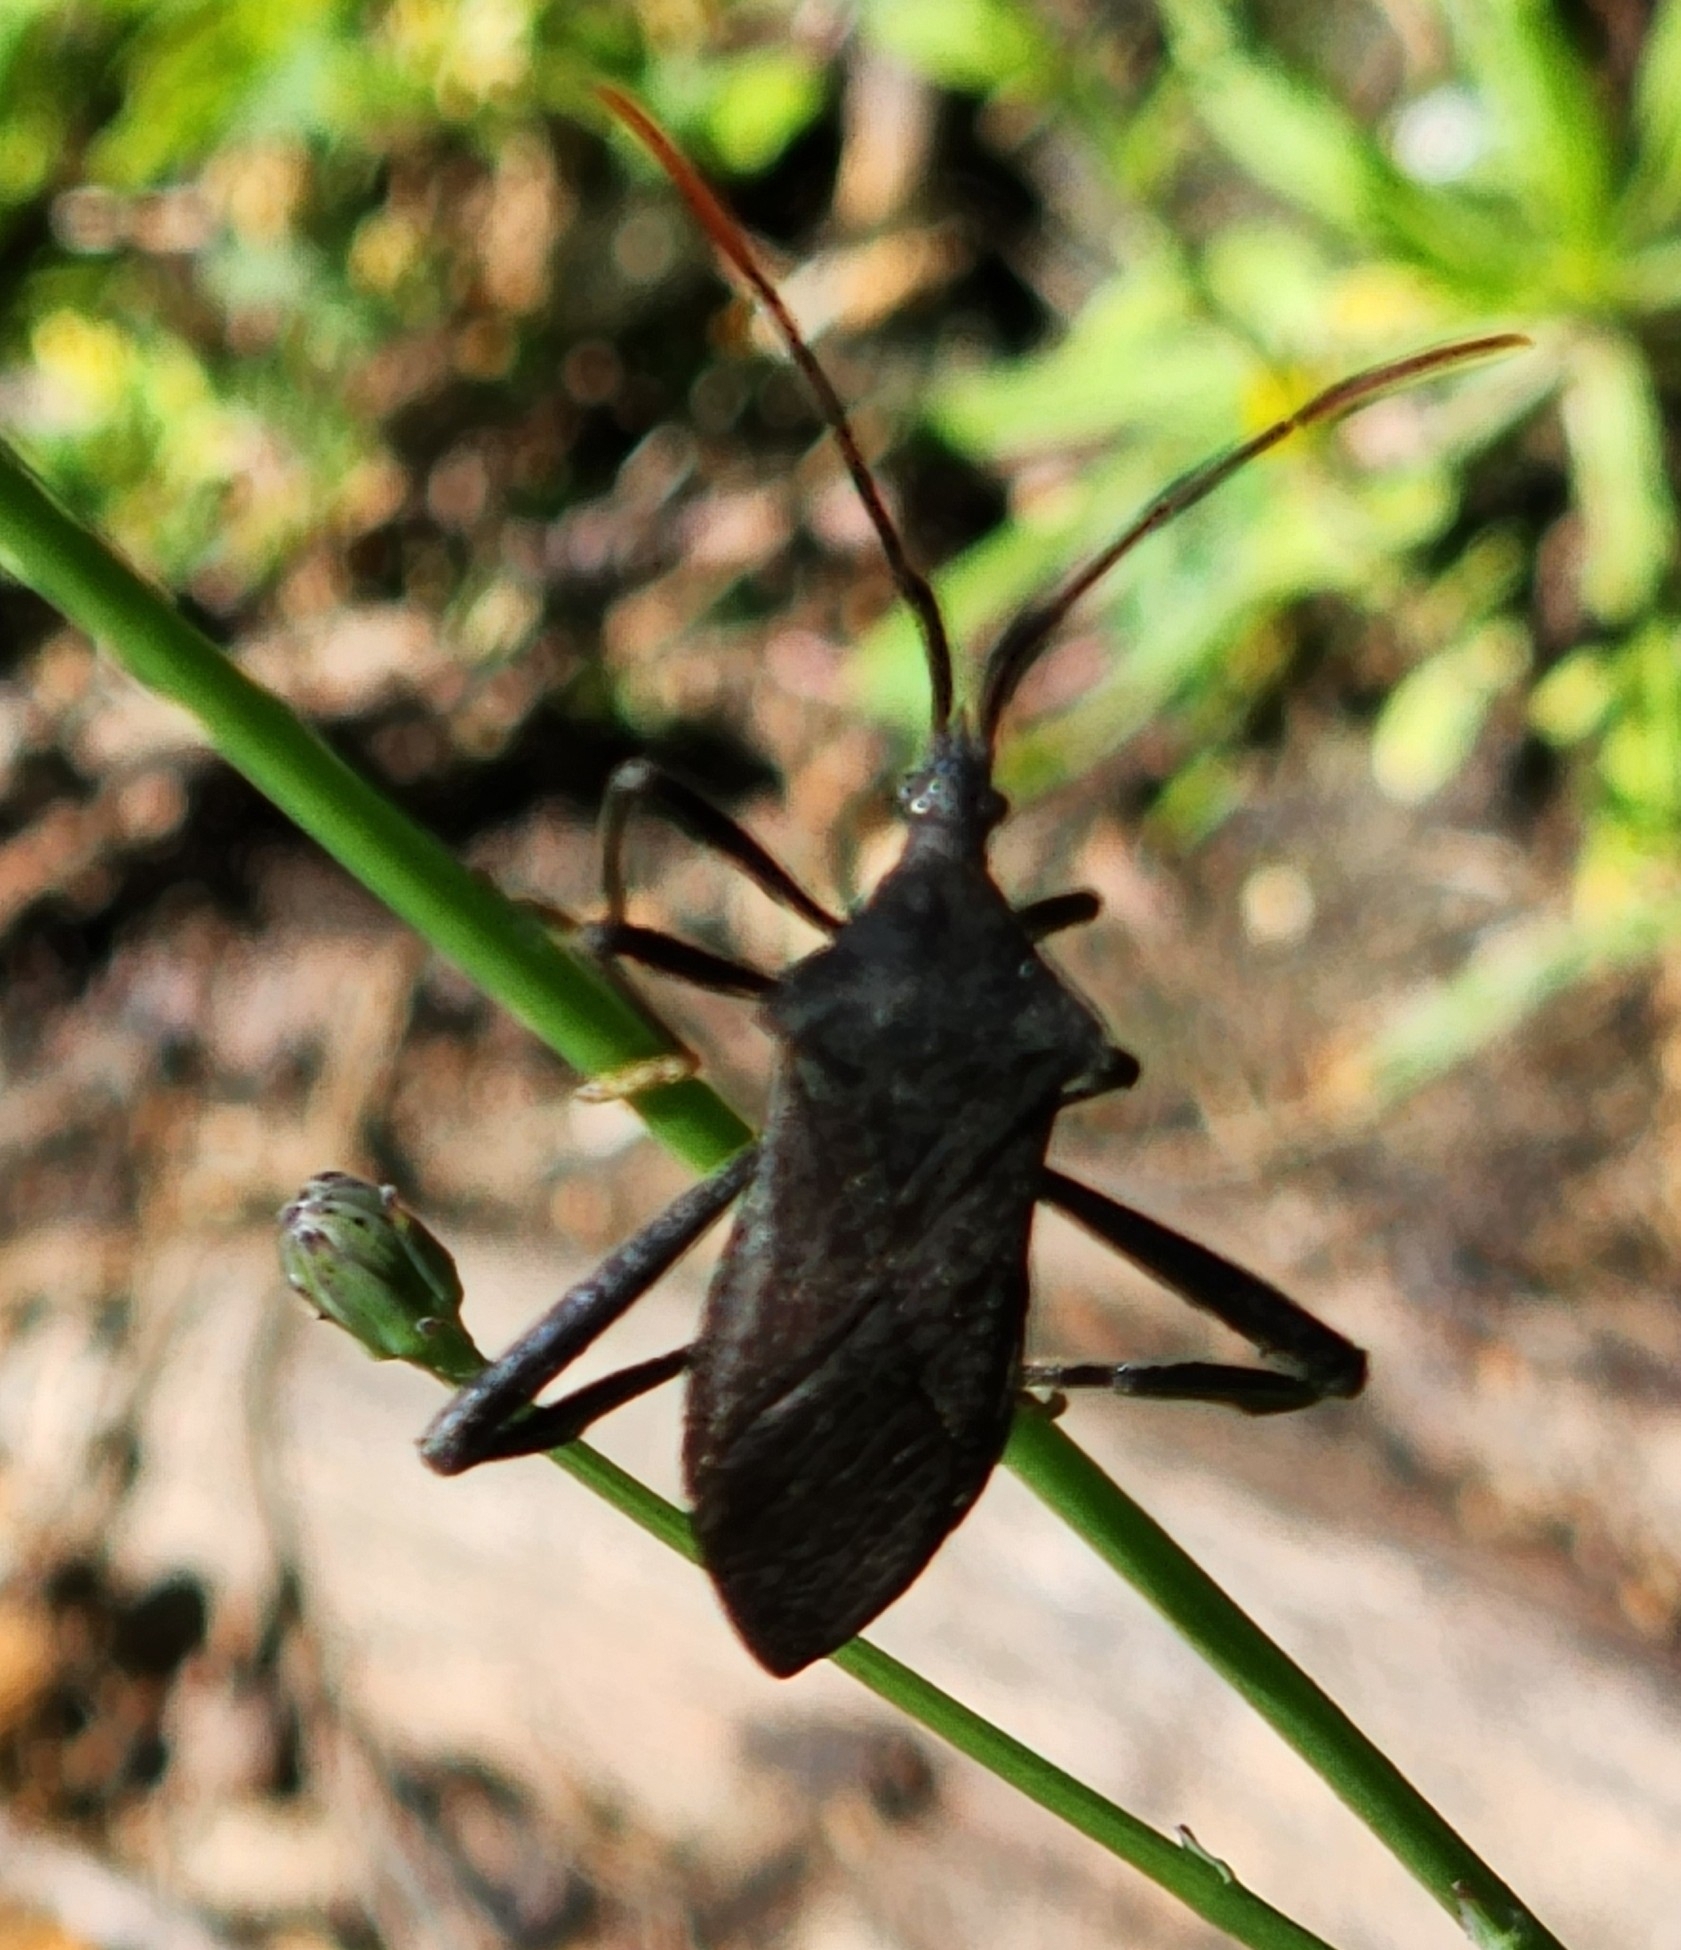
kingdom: Animalia
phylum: Arthropoda
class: Insecta
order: Hemiptera
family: Coreidae
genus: Acanthocephala
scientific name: Acanthocephala terminalis
